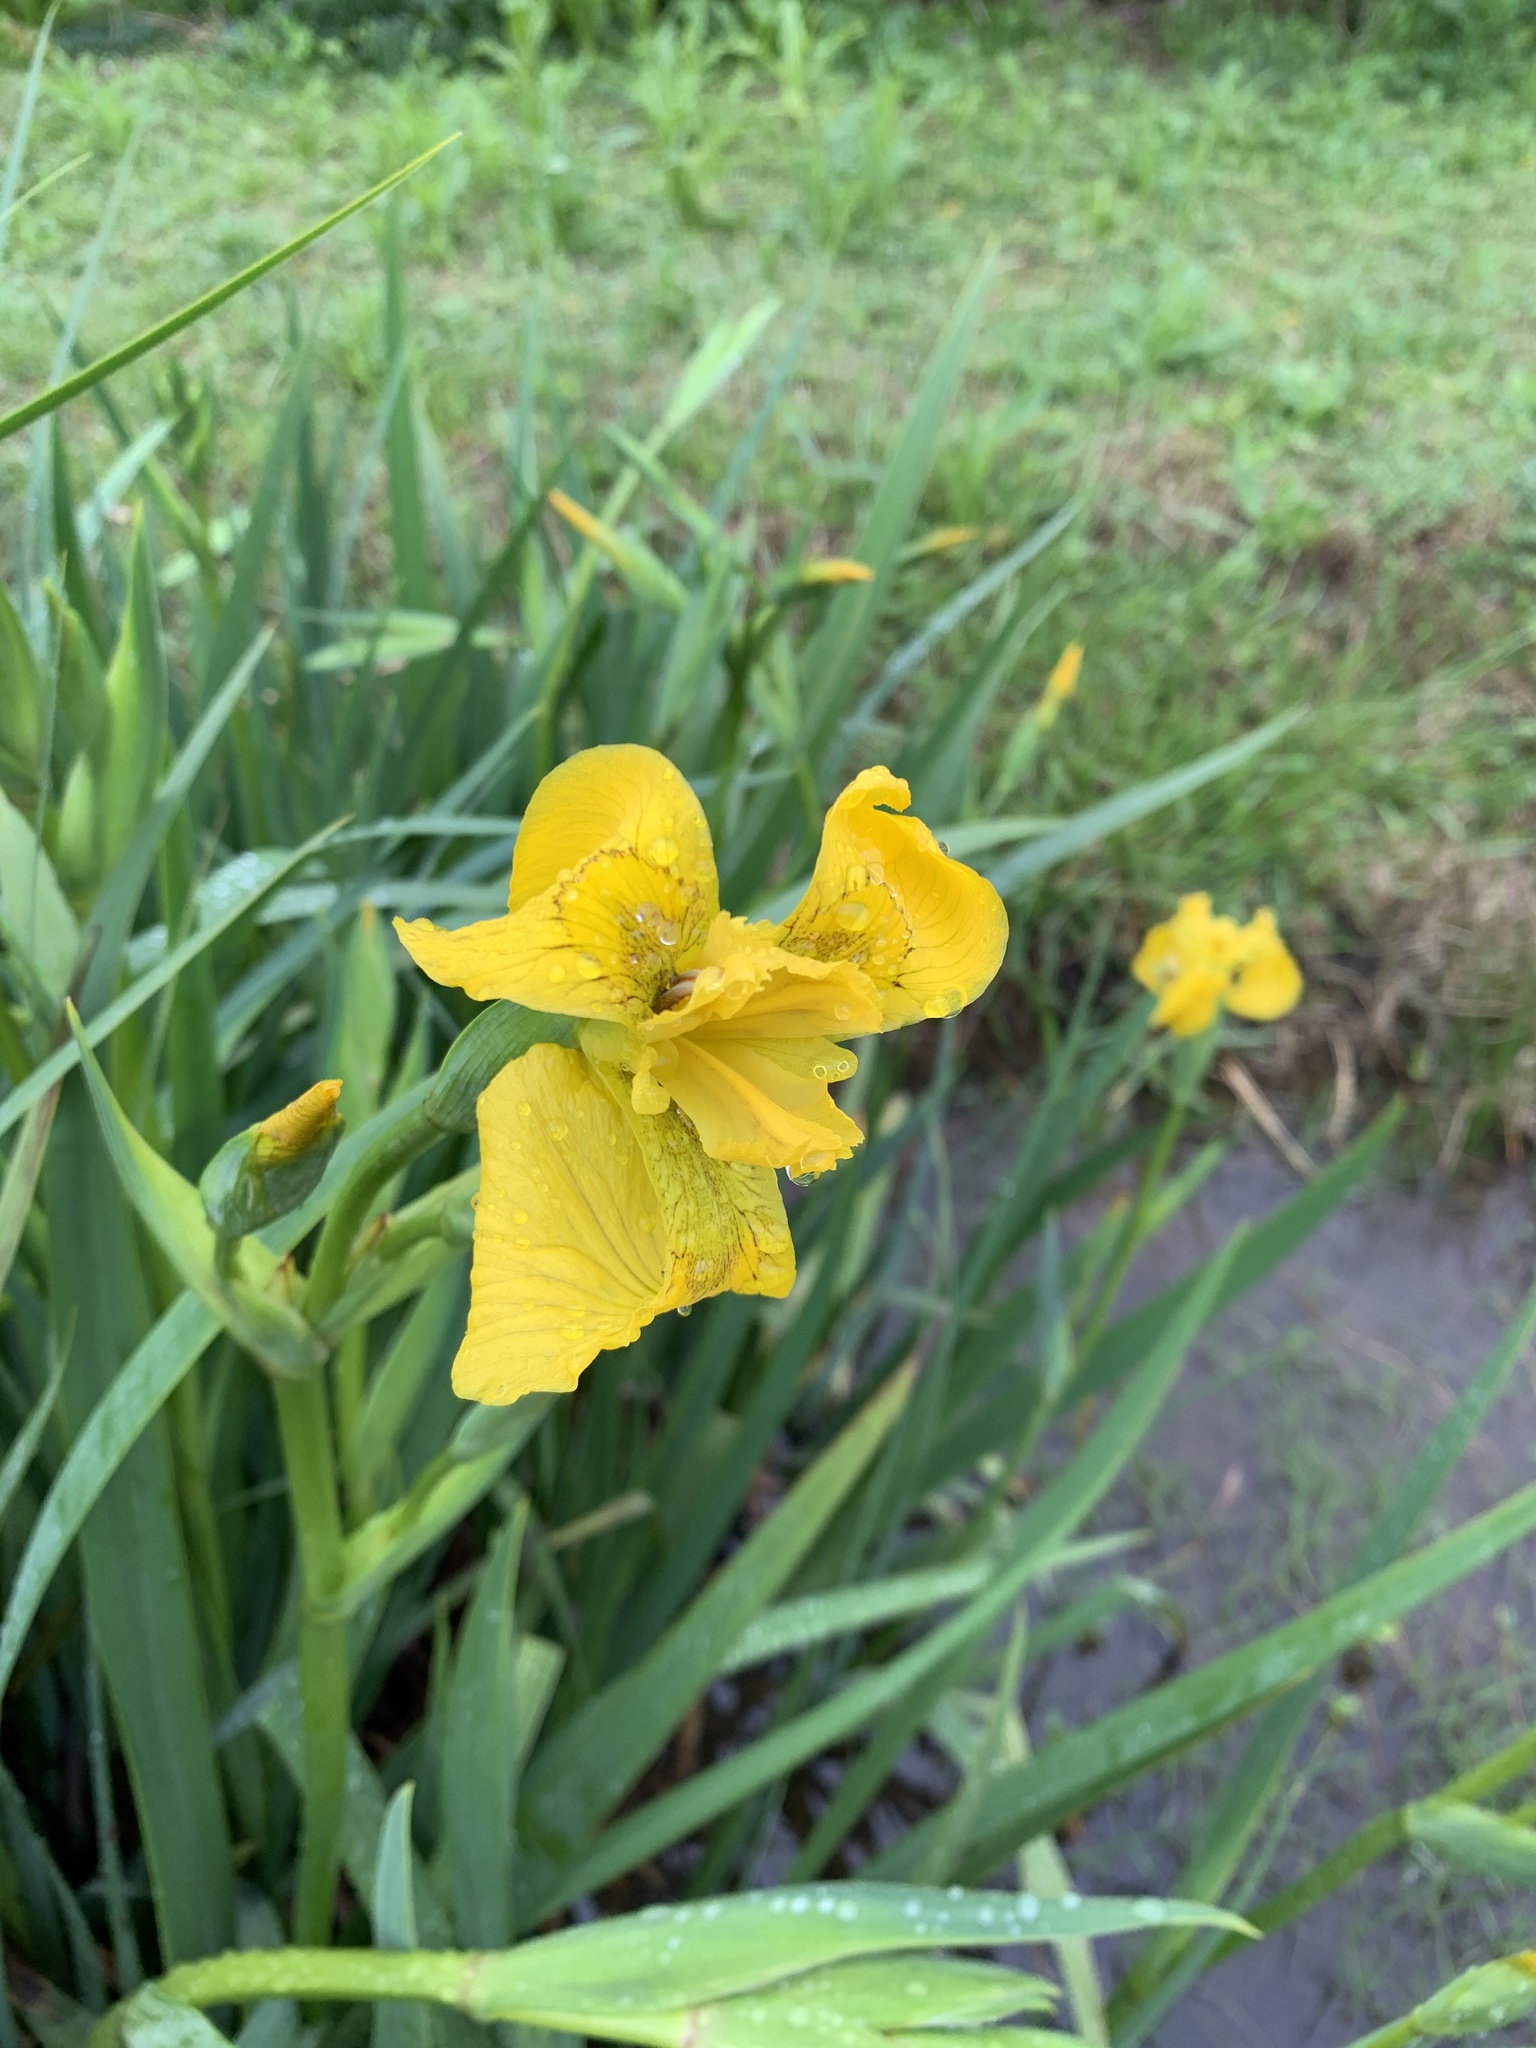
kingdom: Plantae
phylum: Tracheophyta
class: Liliopsida
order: Asparagales
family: Iridaceae
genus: Iris
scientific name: Iris pseudacorus
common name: Yellow flag
